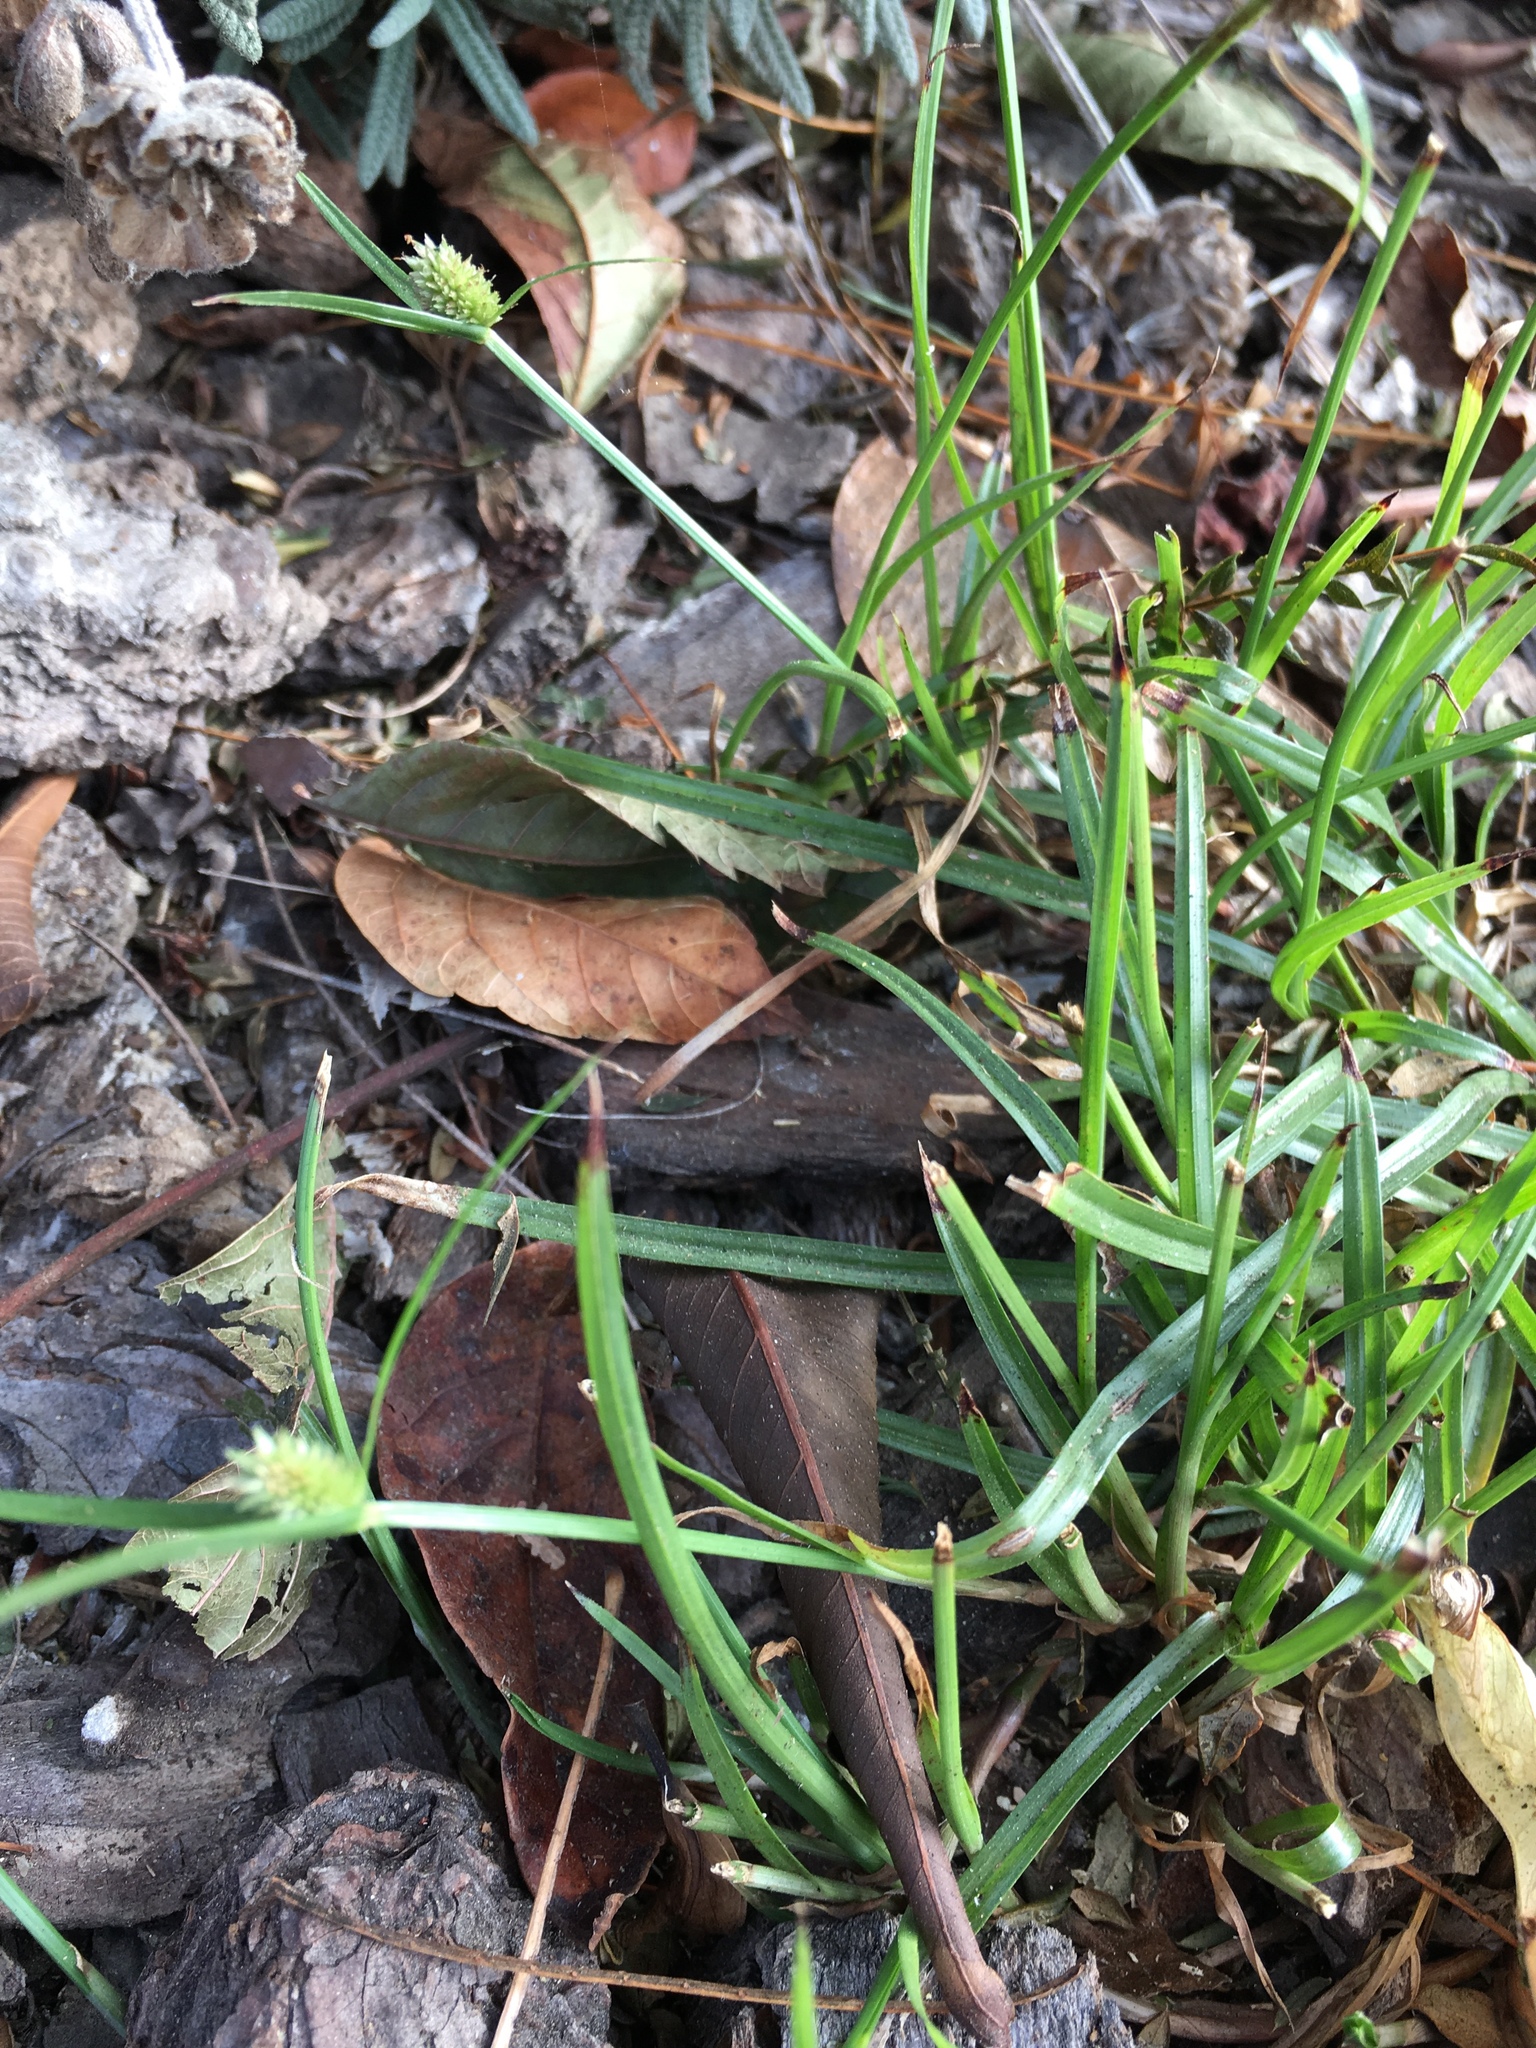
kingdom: Plantae
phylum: Tracheophyta
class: Liliopsida
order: Poales
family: Cyperaceae
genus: Cyperus
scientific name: Cyperus brevifolius
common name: Globe kyllinga
